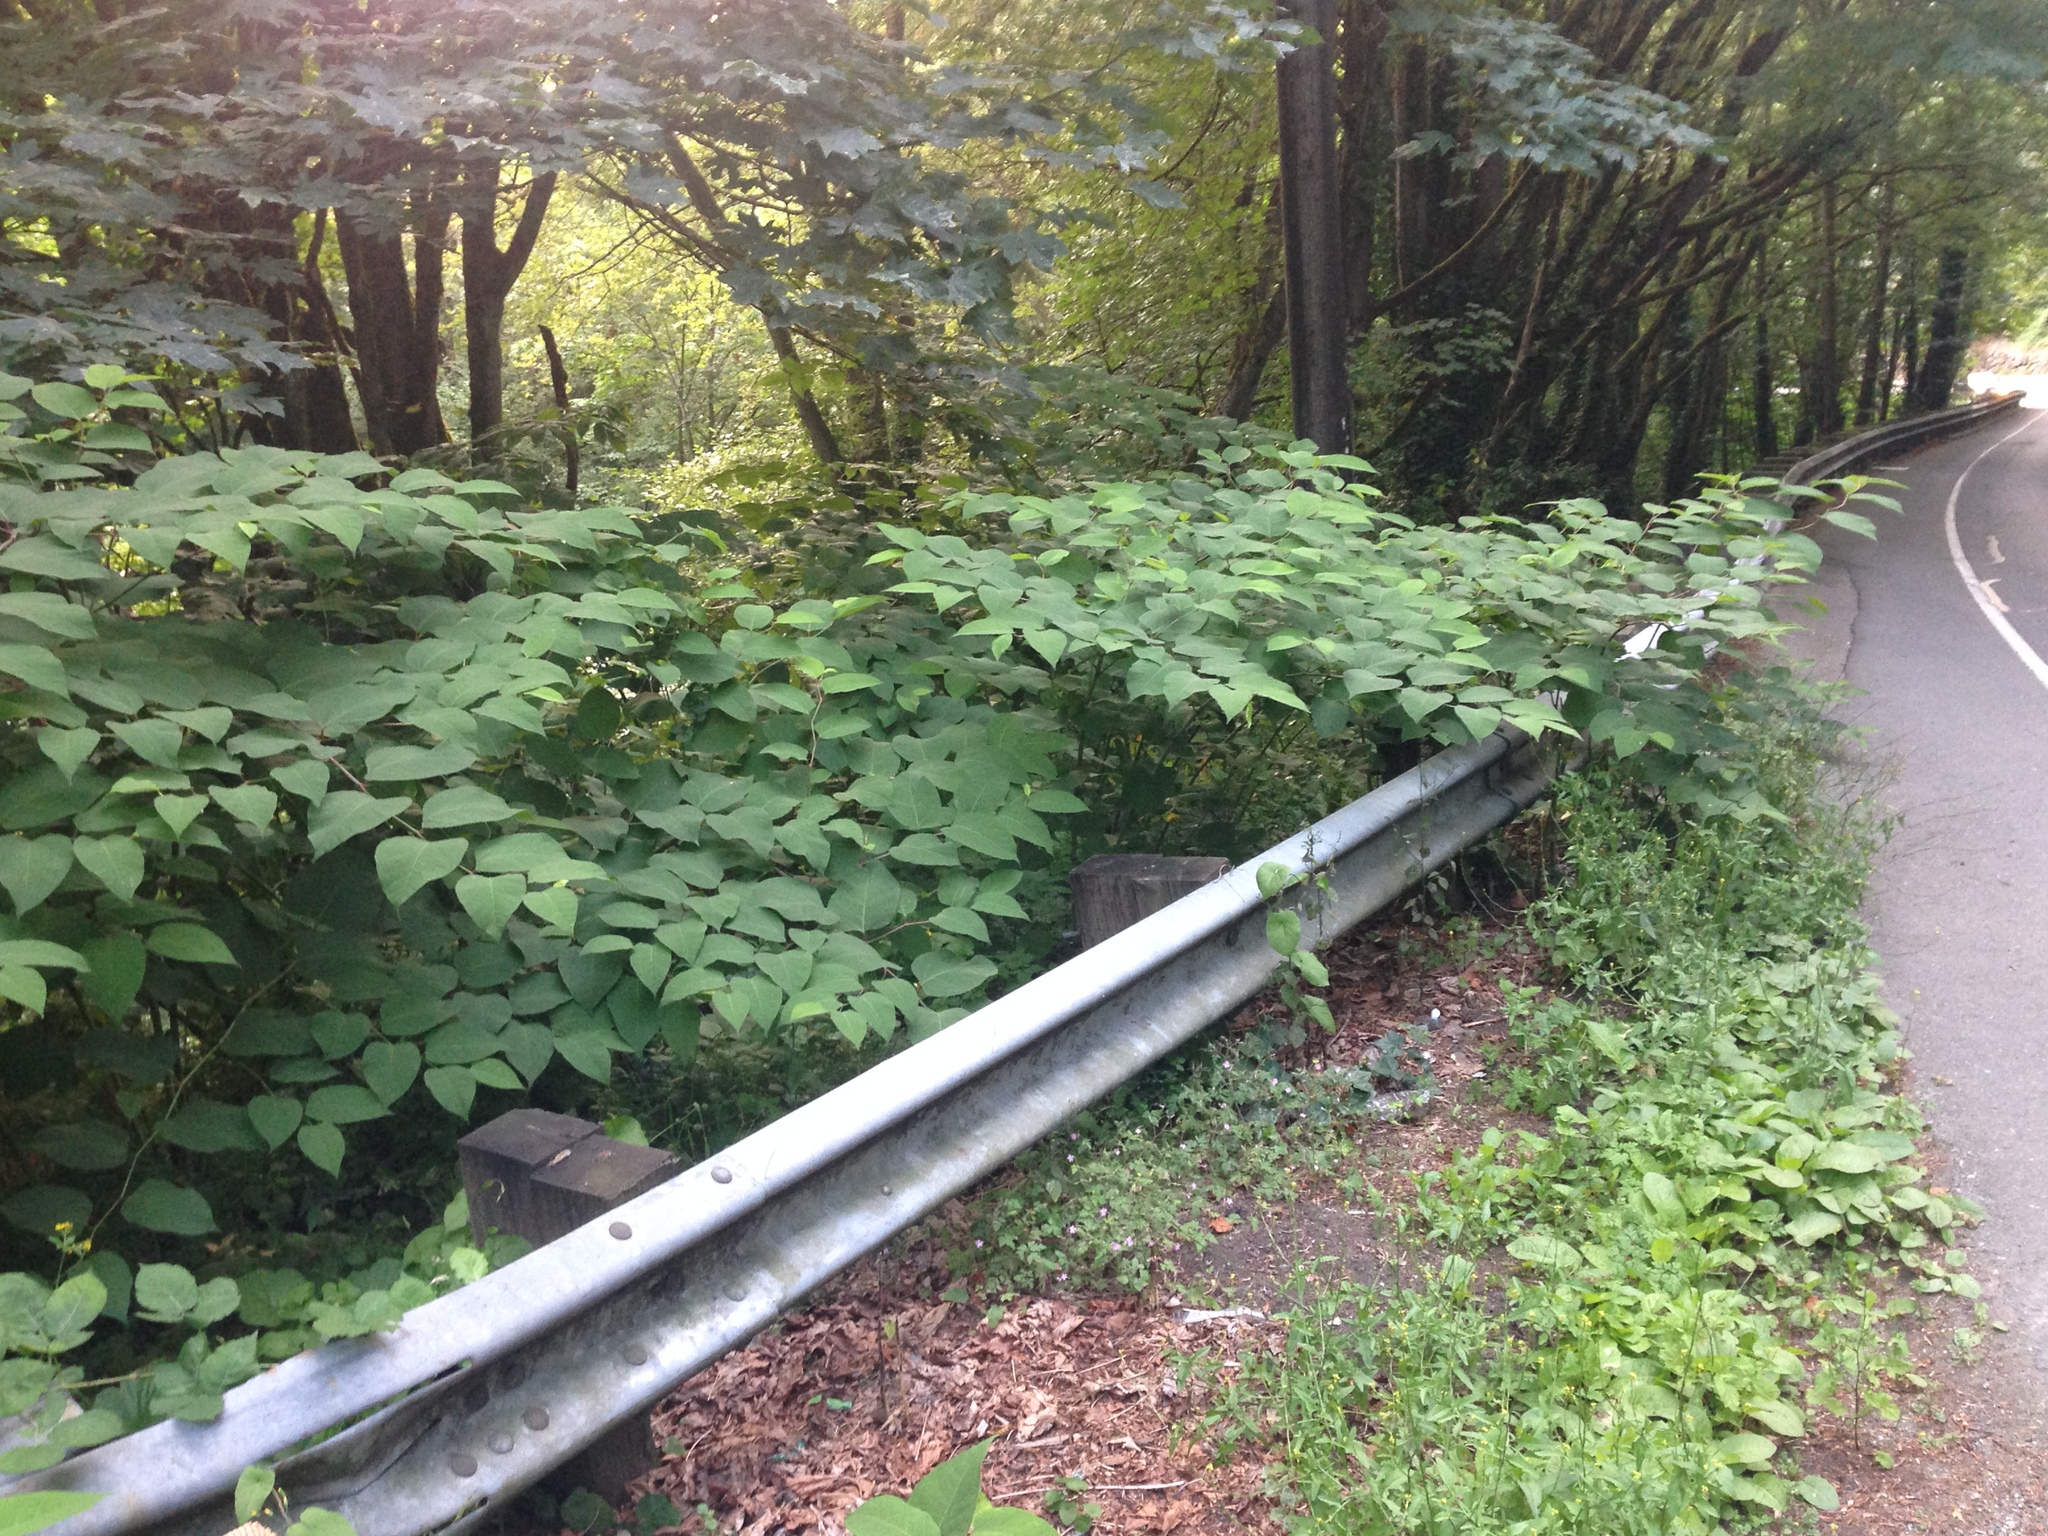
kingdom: Plantae
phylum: Tracheophyta
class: Magnoliopsida
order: Caryophyllales
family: Polygonaceae
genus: Reynoutria
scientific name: Reynoutria japonica
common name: Japanese knotweed
